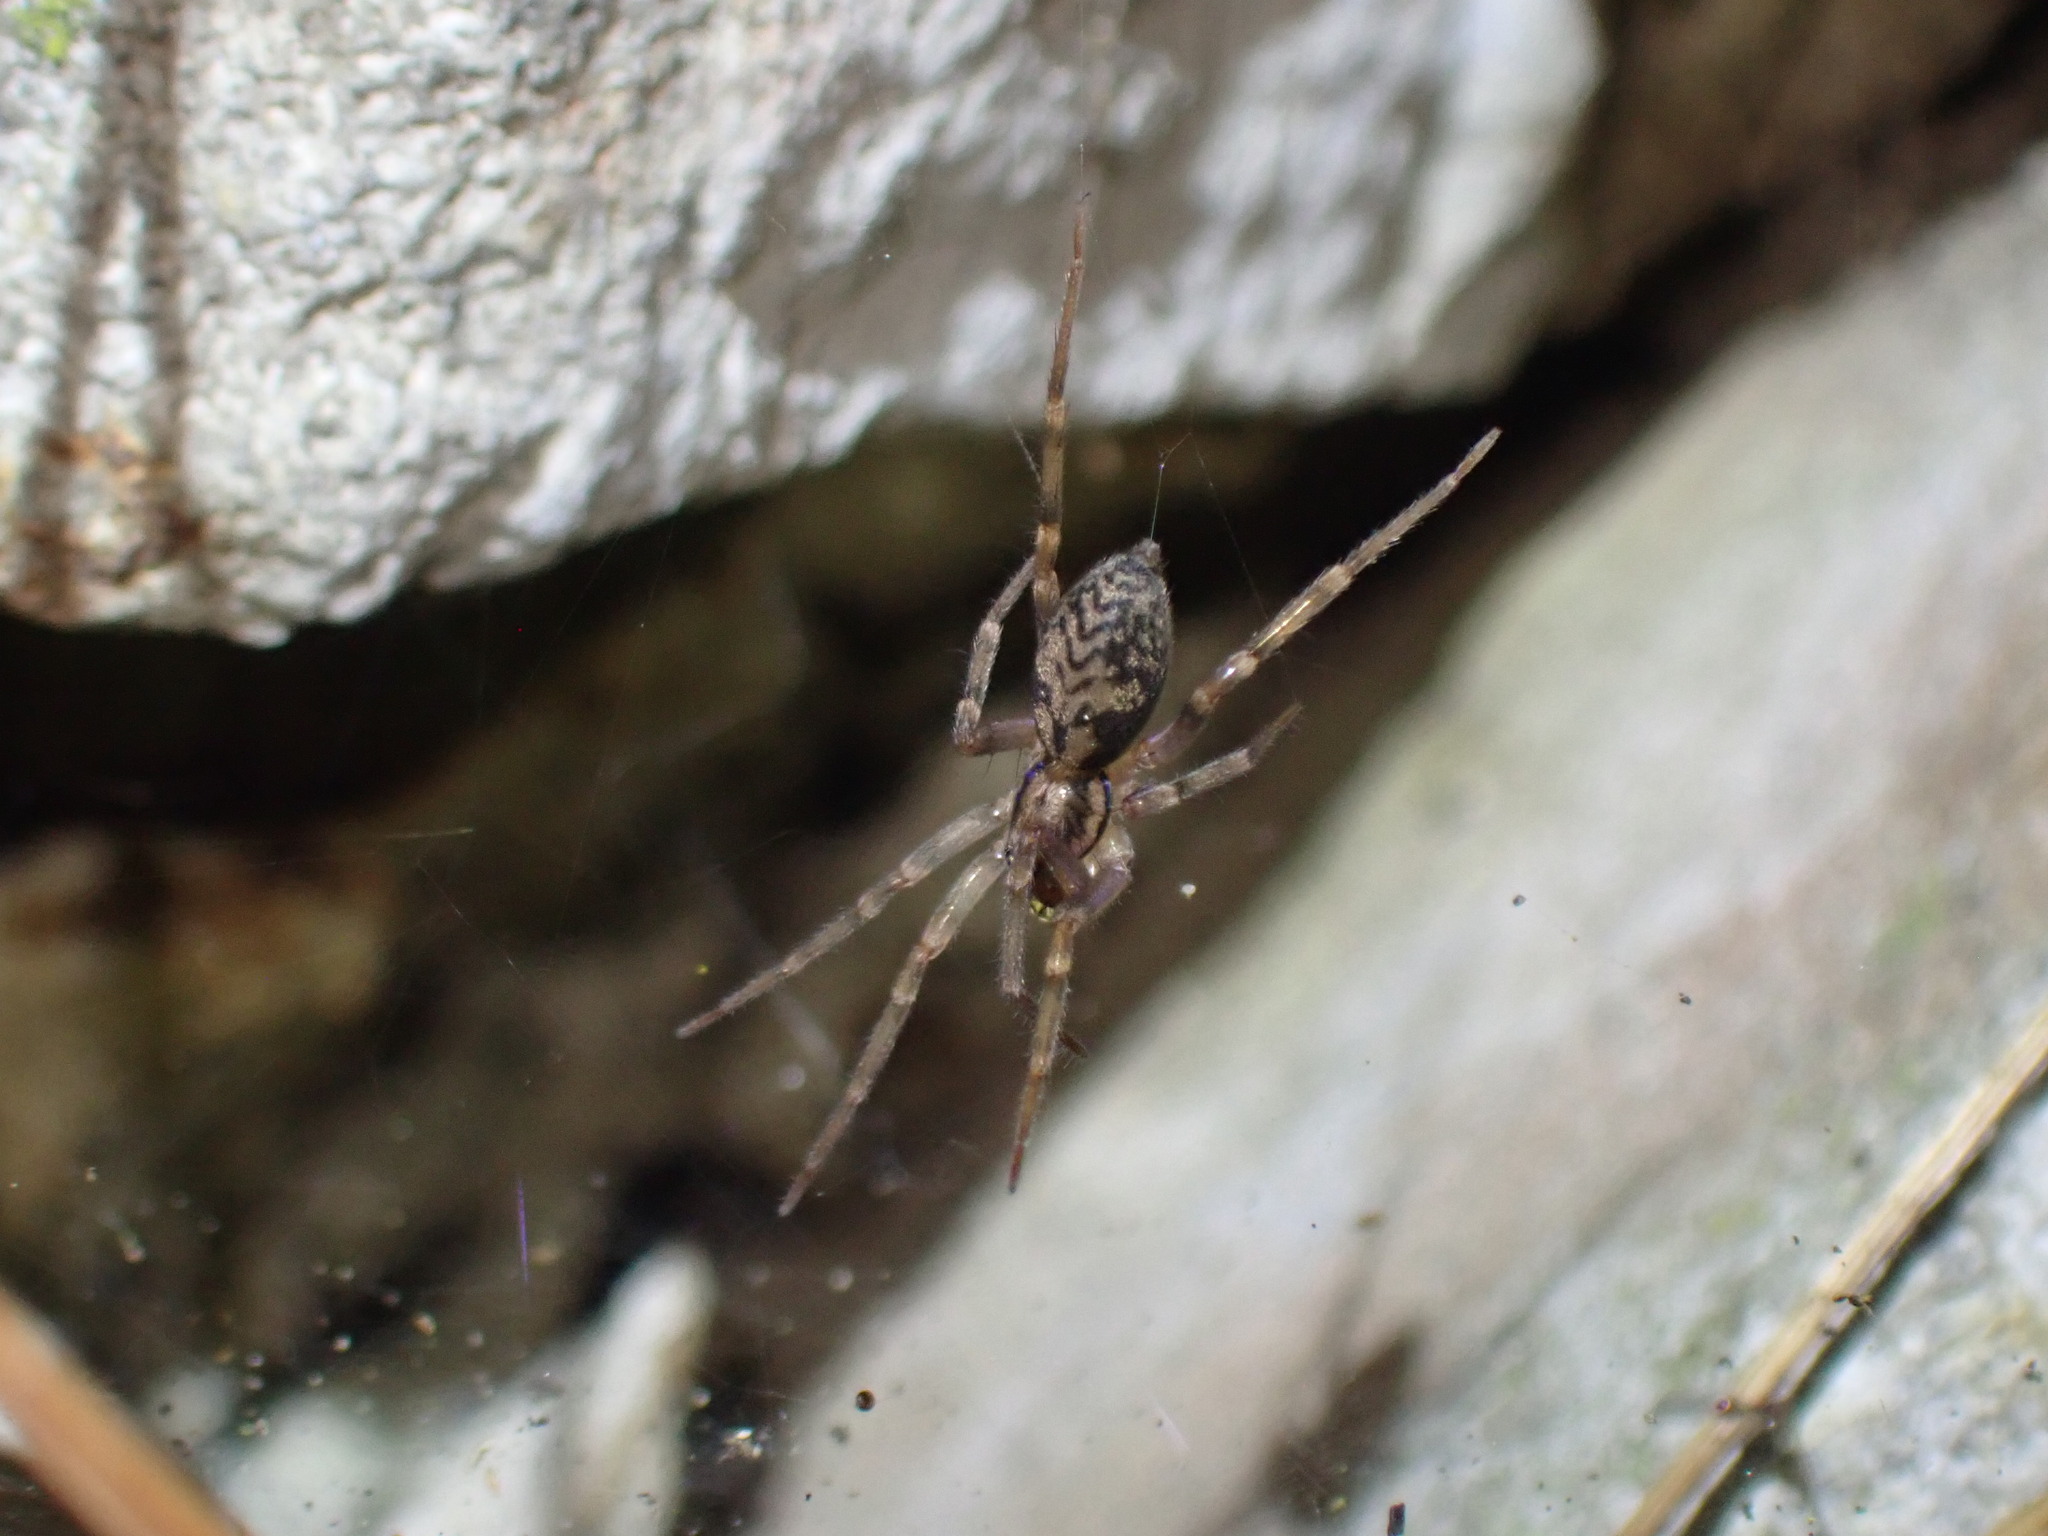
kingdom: Animalia
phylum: Arthropoda
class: Arachnida
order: Araneae
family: Liocranidae
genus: Liocranum
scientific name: Liocranum rupicola
